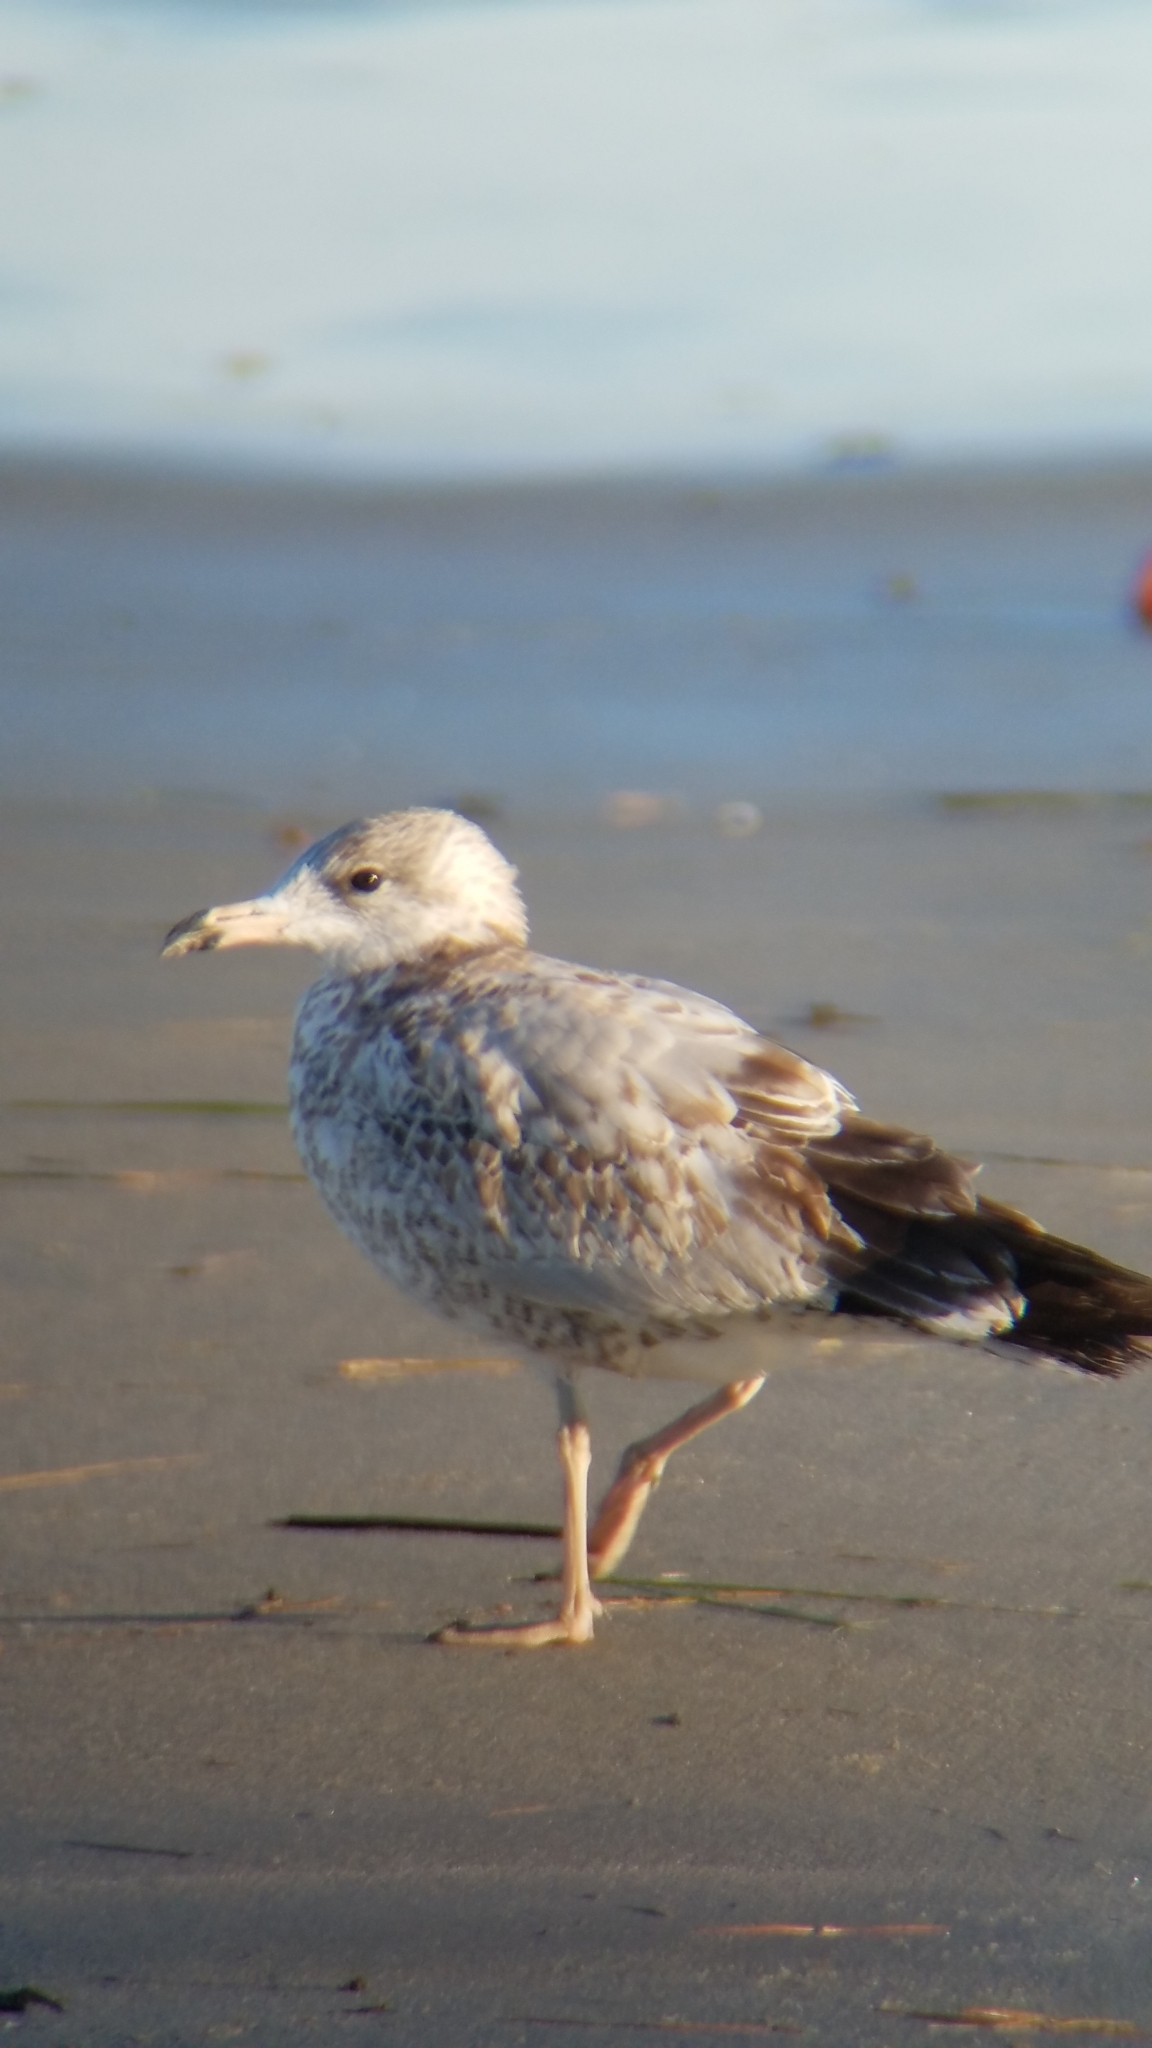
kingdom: Animalia
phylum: Chordata
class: Aves
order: Charadriiformes
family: Laridae
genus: Larus
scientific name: Larus delawarensis
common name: Ring-billed gull
